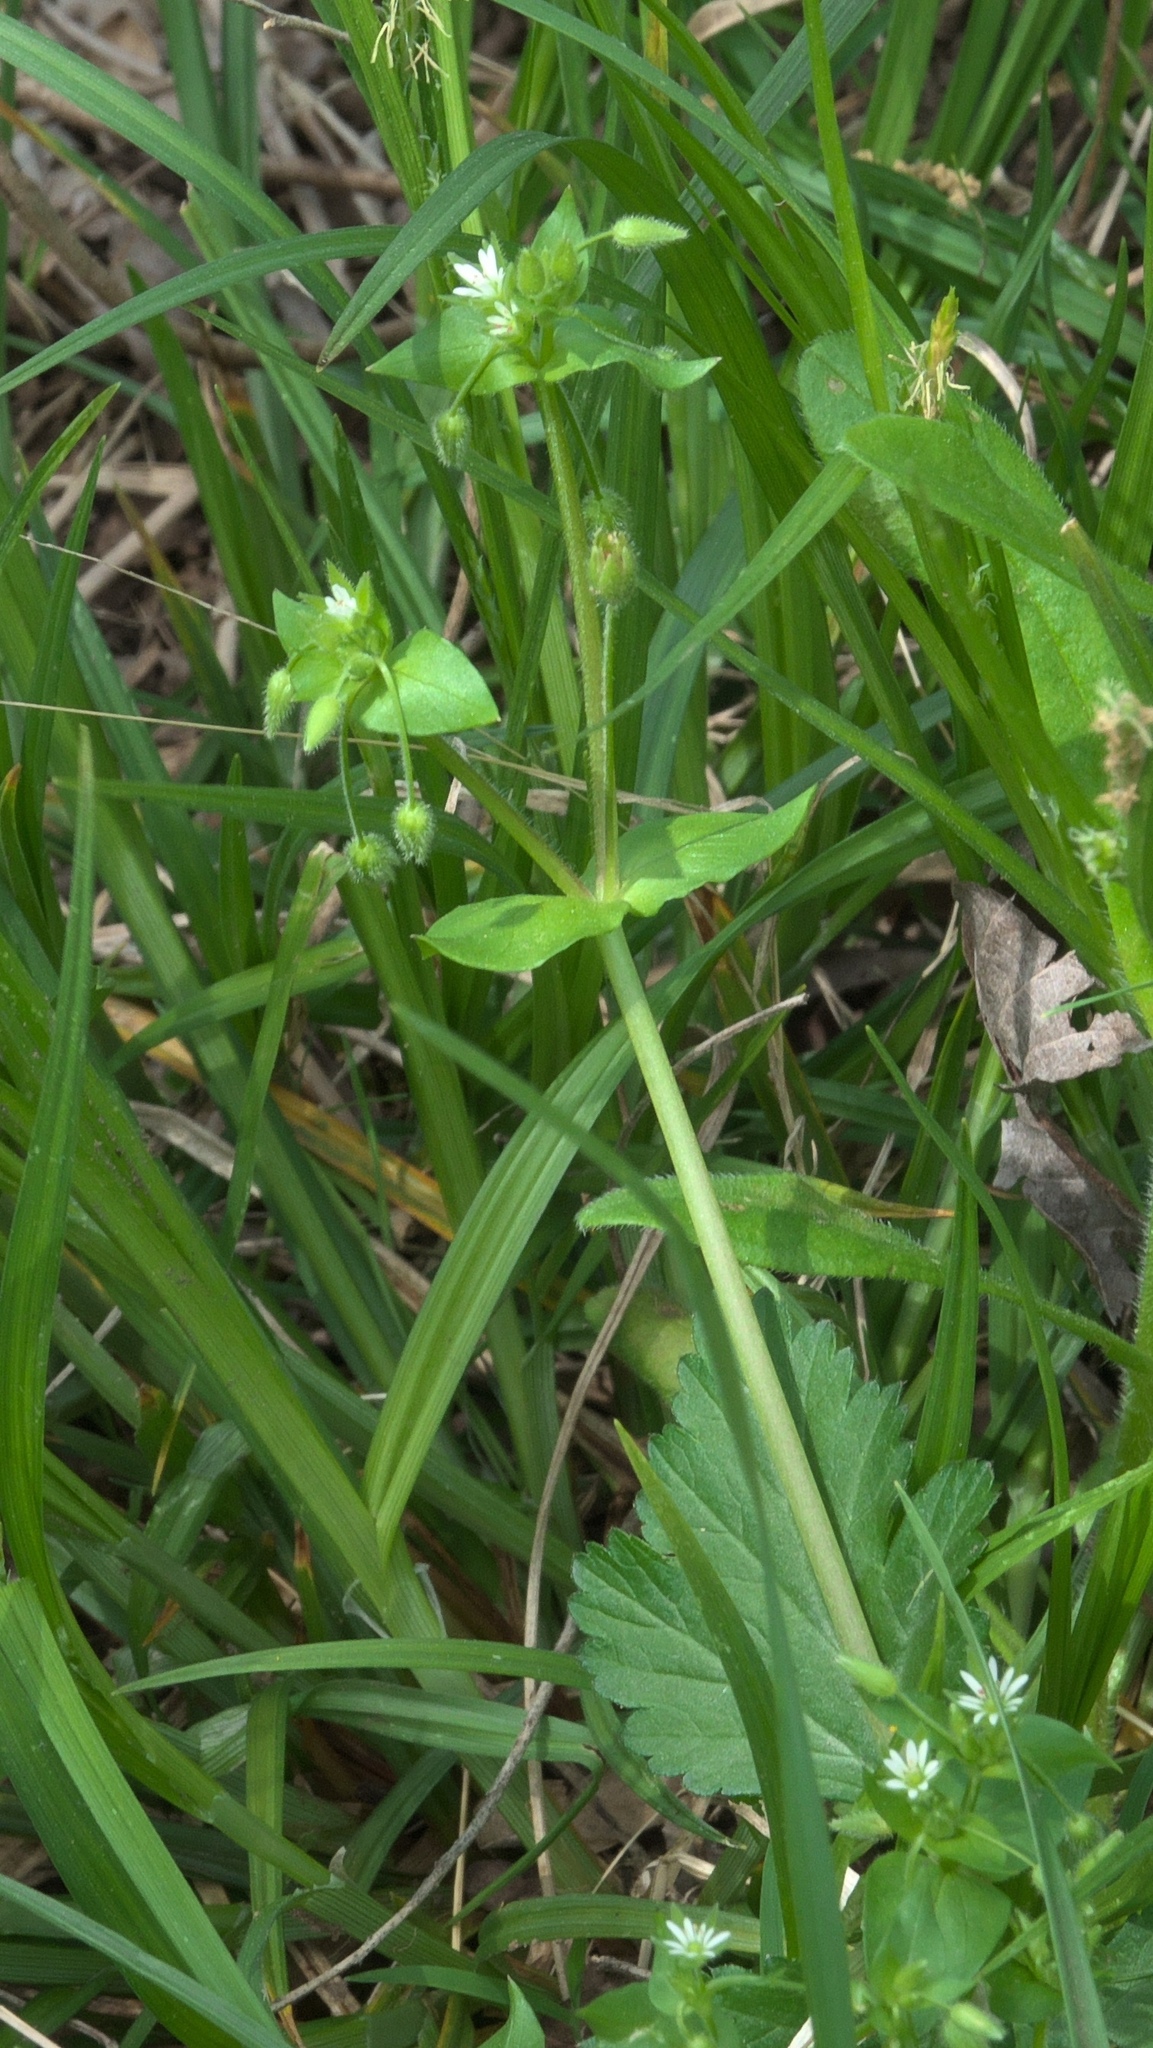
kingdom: Plantae
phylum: Tracheophyta
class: Magnoliopsida
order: Caryophyllales
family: Caryophyllaceae
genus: Stellaria
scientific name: Stellaria media
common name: Common chickweed
